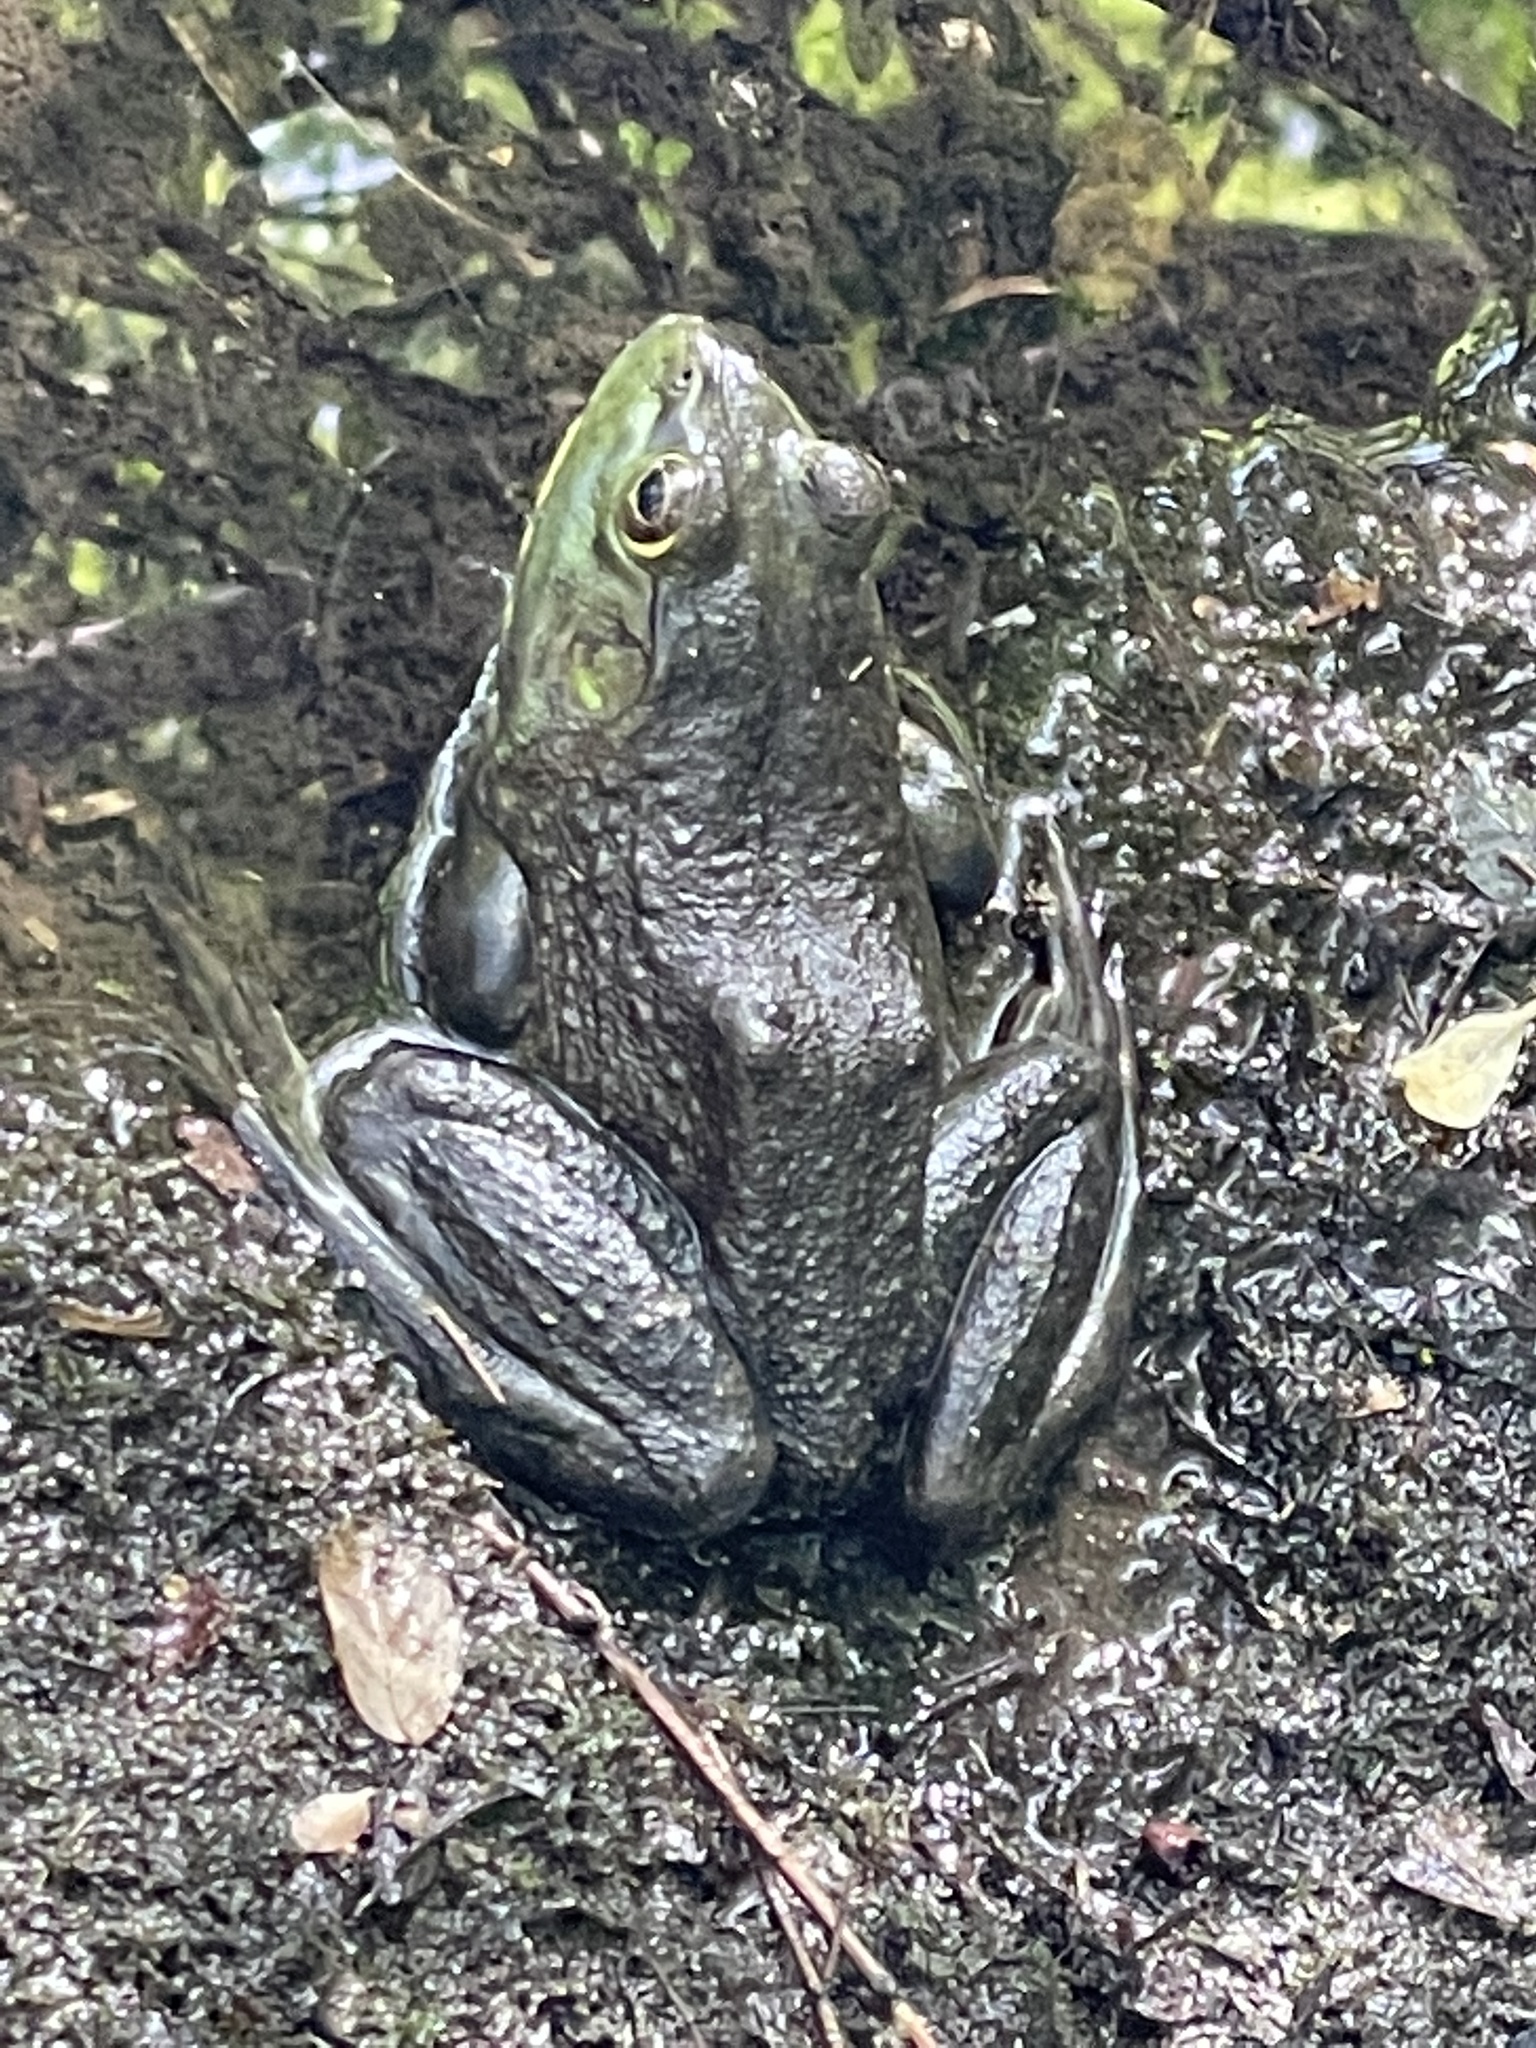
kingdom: Animalia
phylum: Chordata
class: Amphibia
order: Anura
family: Ranidae
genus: Lithobates
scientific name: Lithobates catesbeianus
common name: American bullfrog
